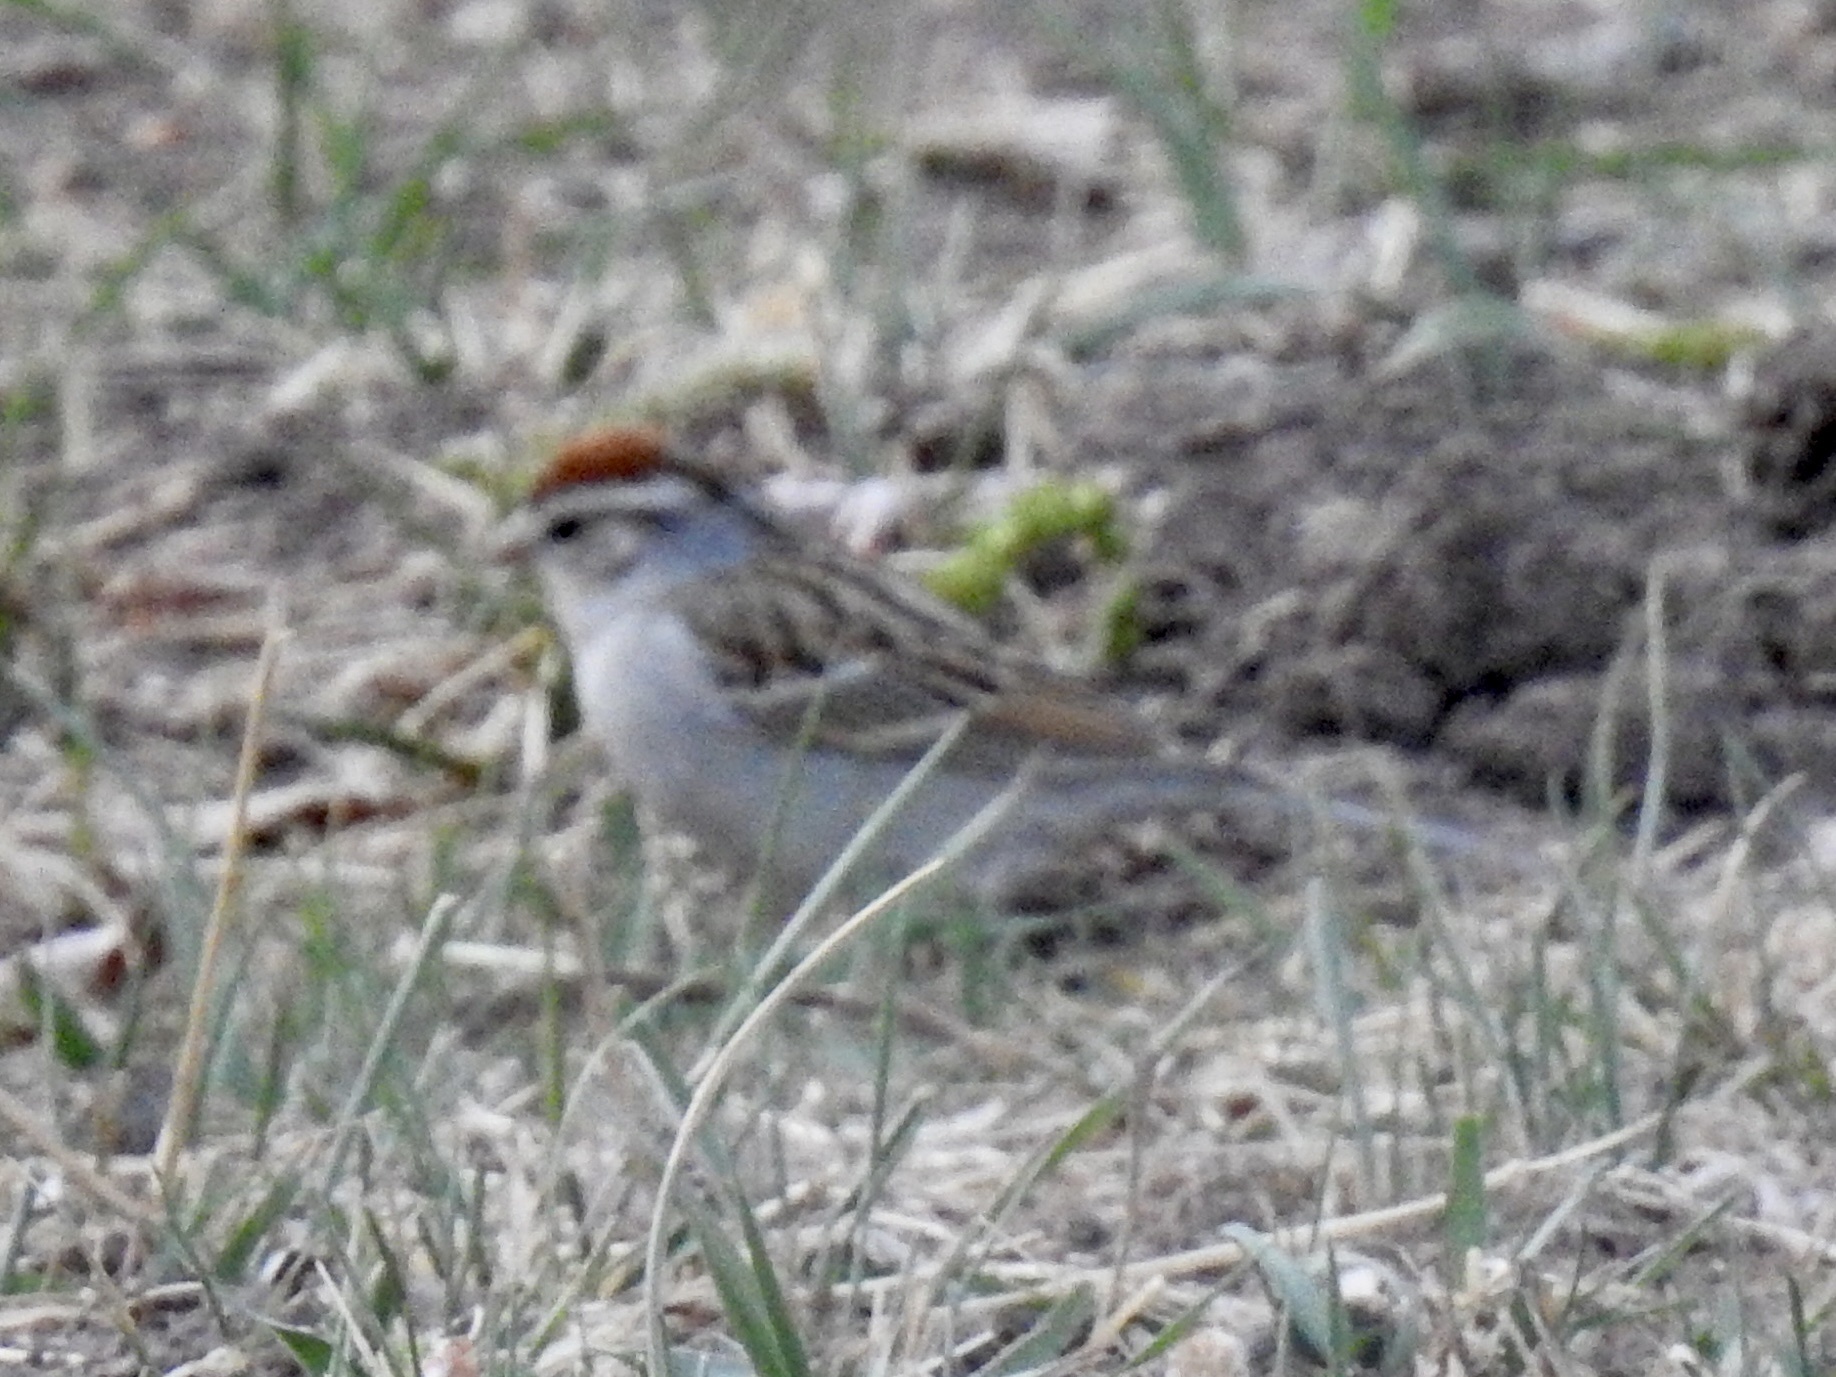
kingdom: Animalia
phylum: Chordata
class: Aves
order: Passeriformes
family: Passerellidae
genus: Spizella
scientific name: Spizella passerina
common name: Chipping sparrow
